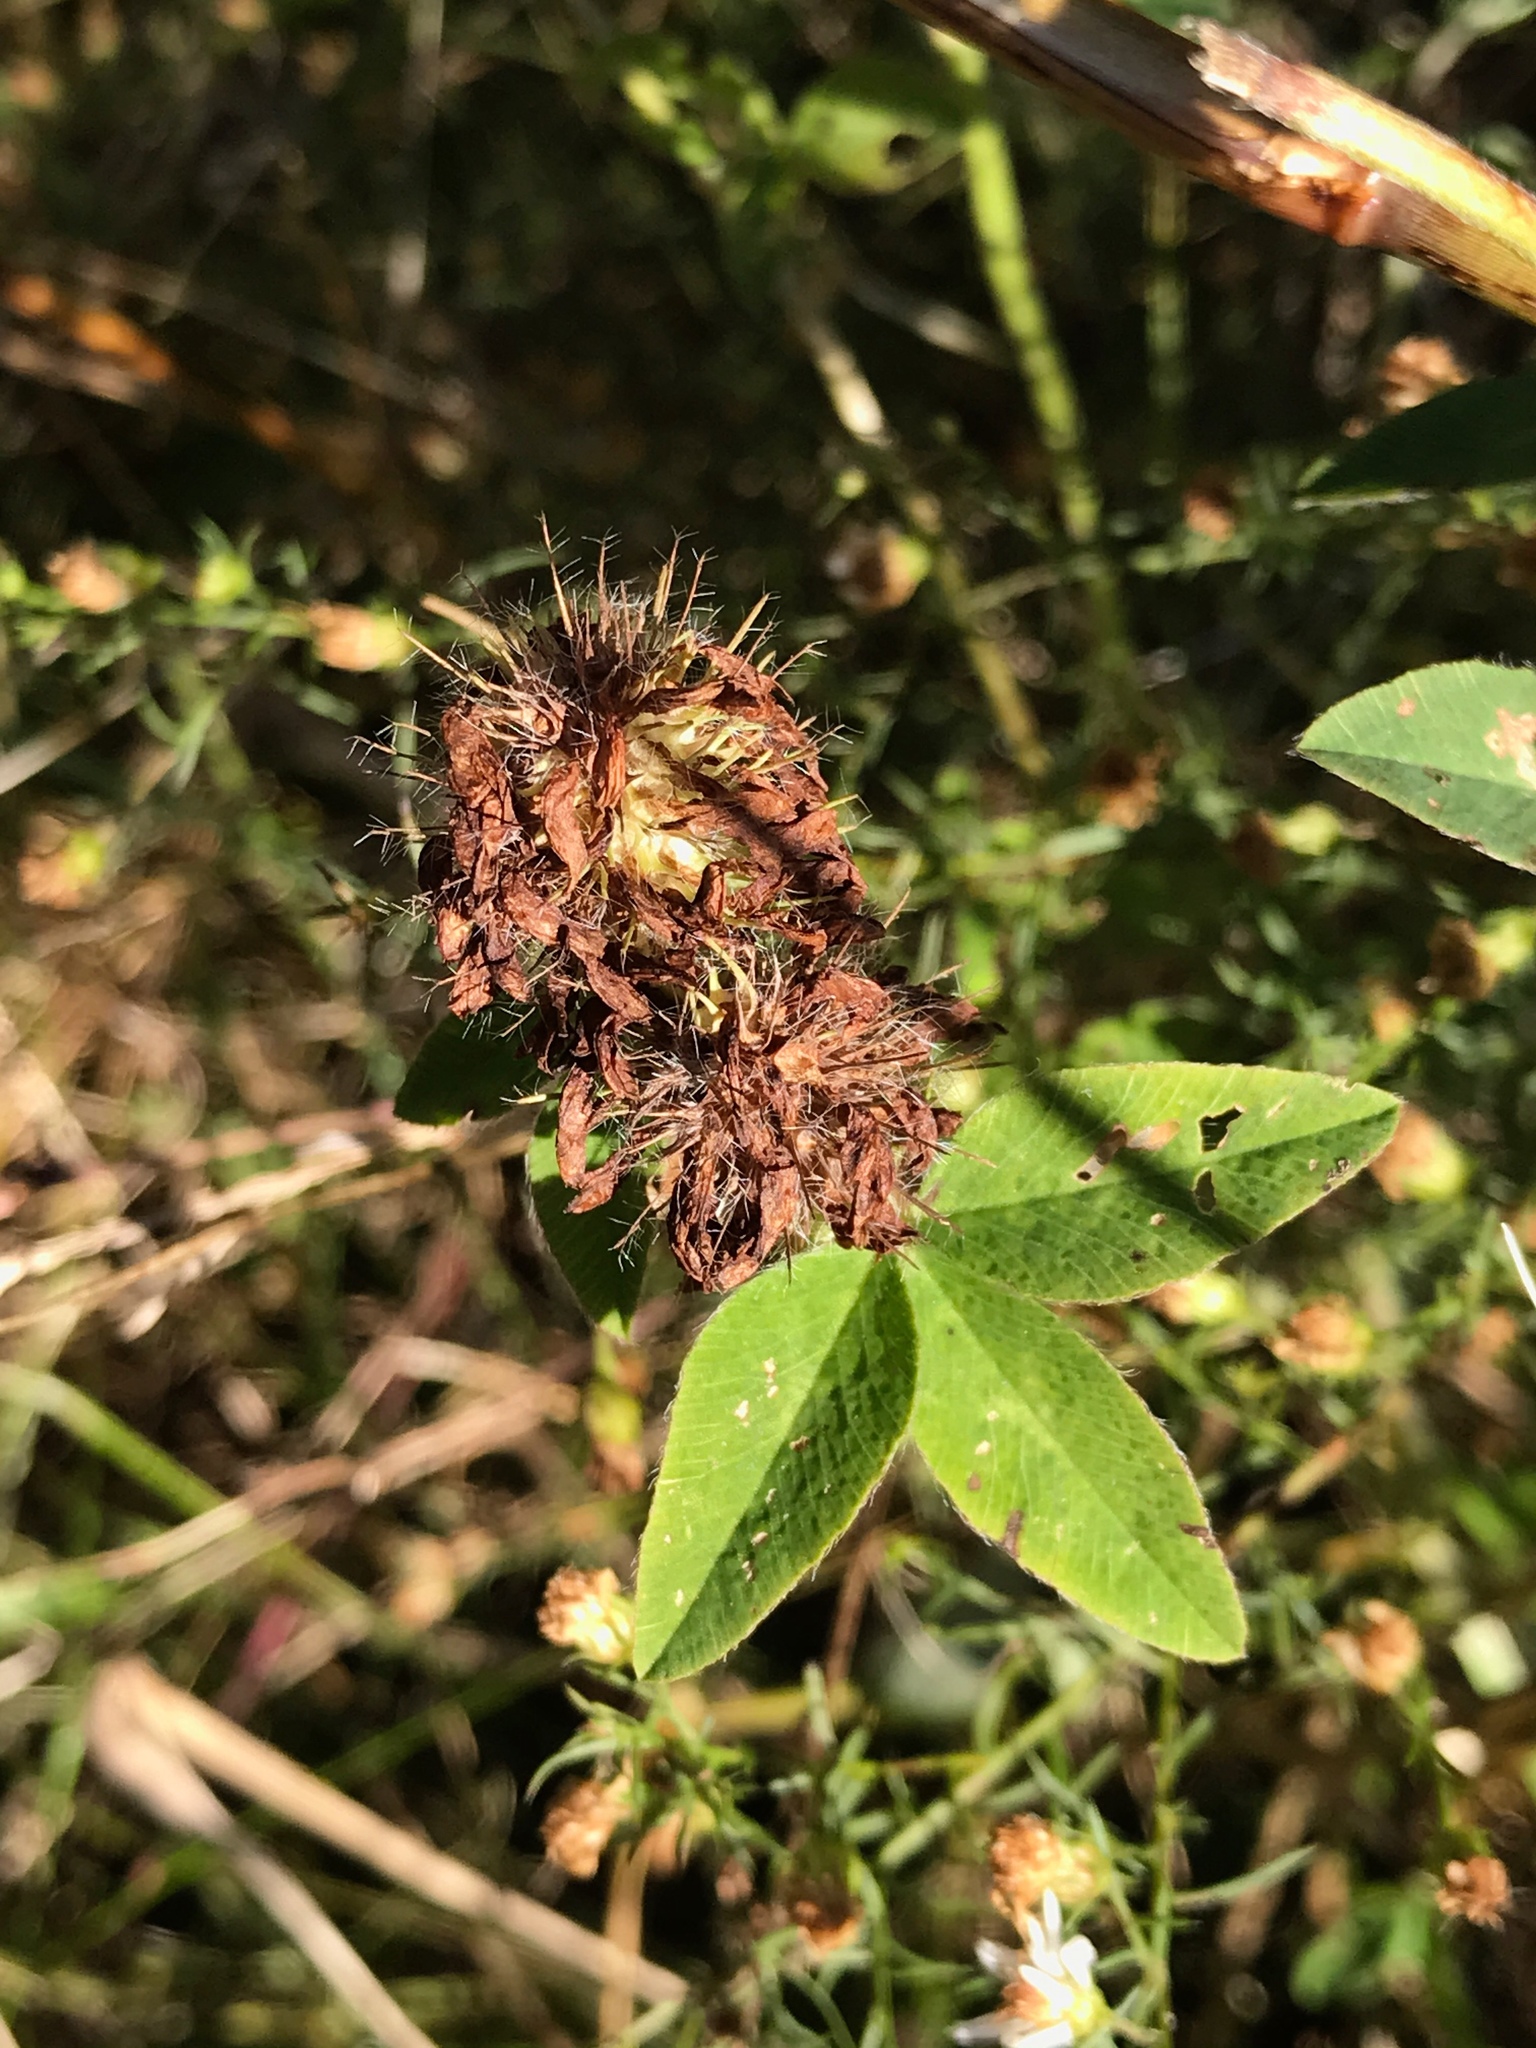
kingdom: Plantae
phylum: Tracheophyta
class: Magnoliopsida
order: Fabales
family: Fabaceae
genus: Trifolium
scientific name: Trifolium pratense
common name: Red clover
